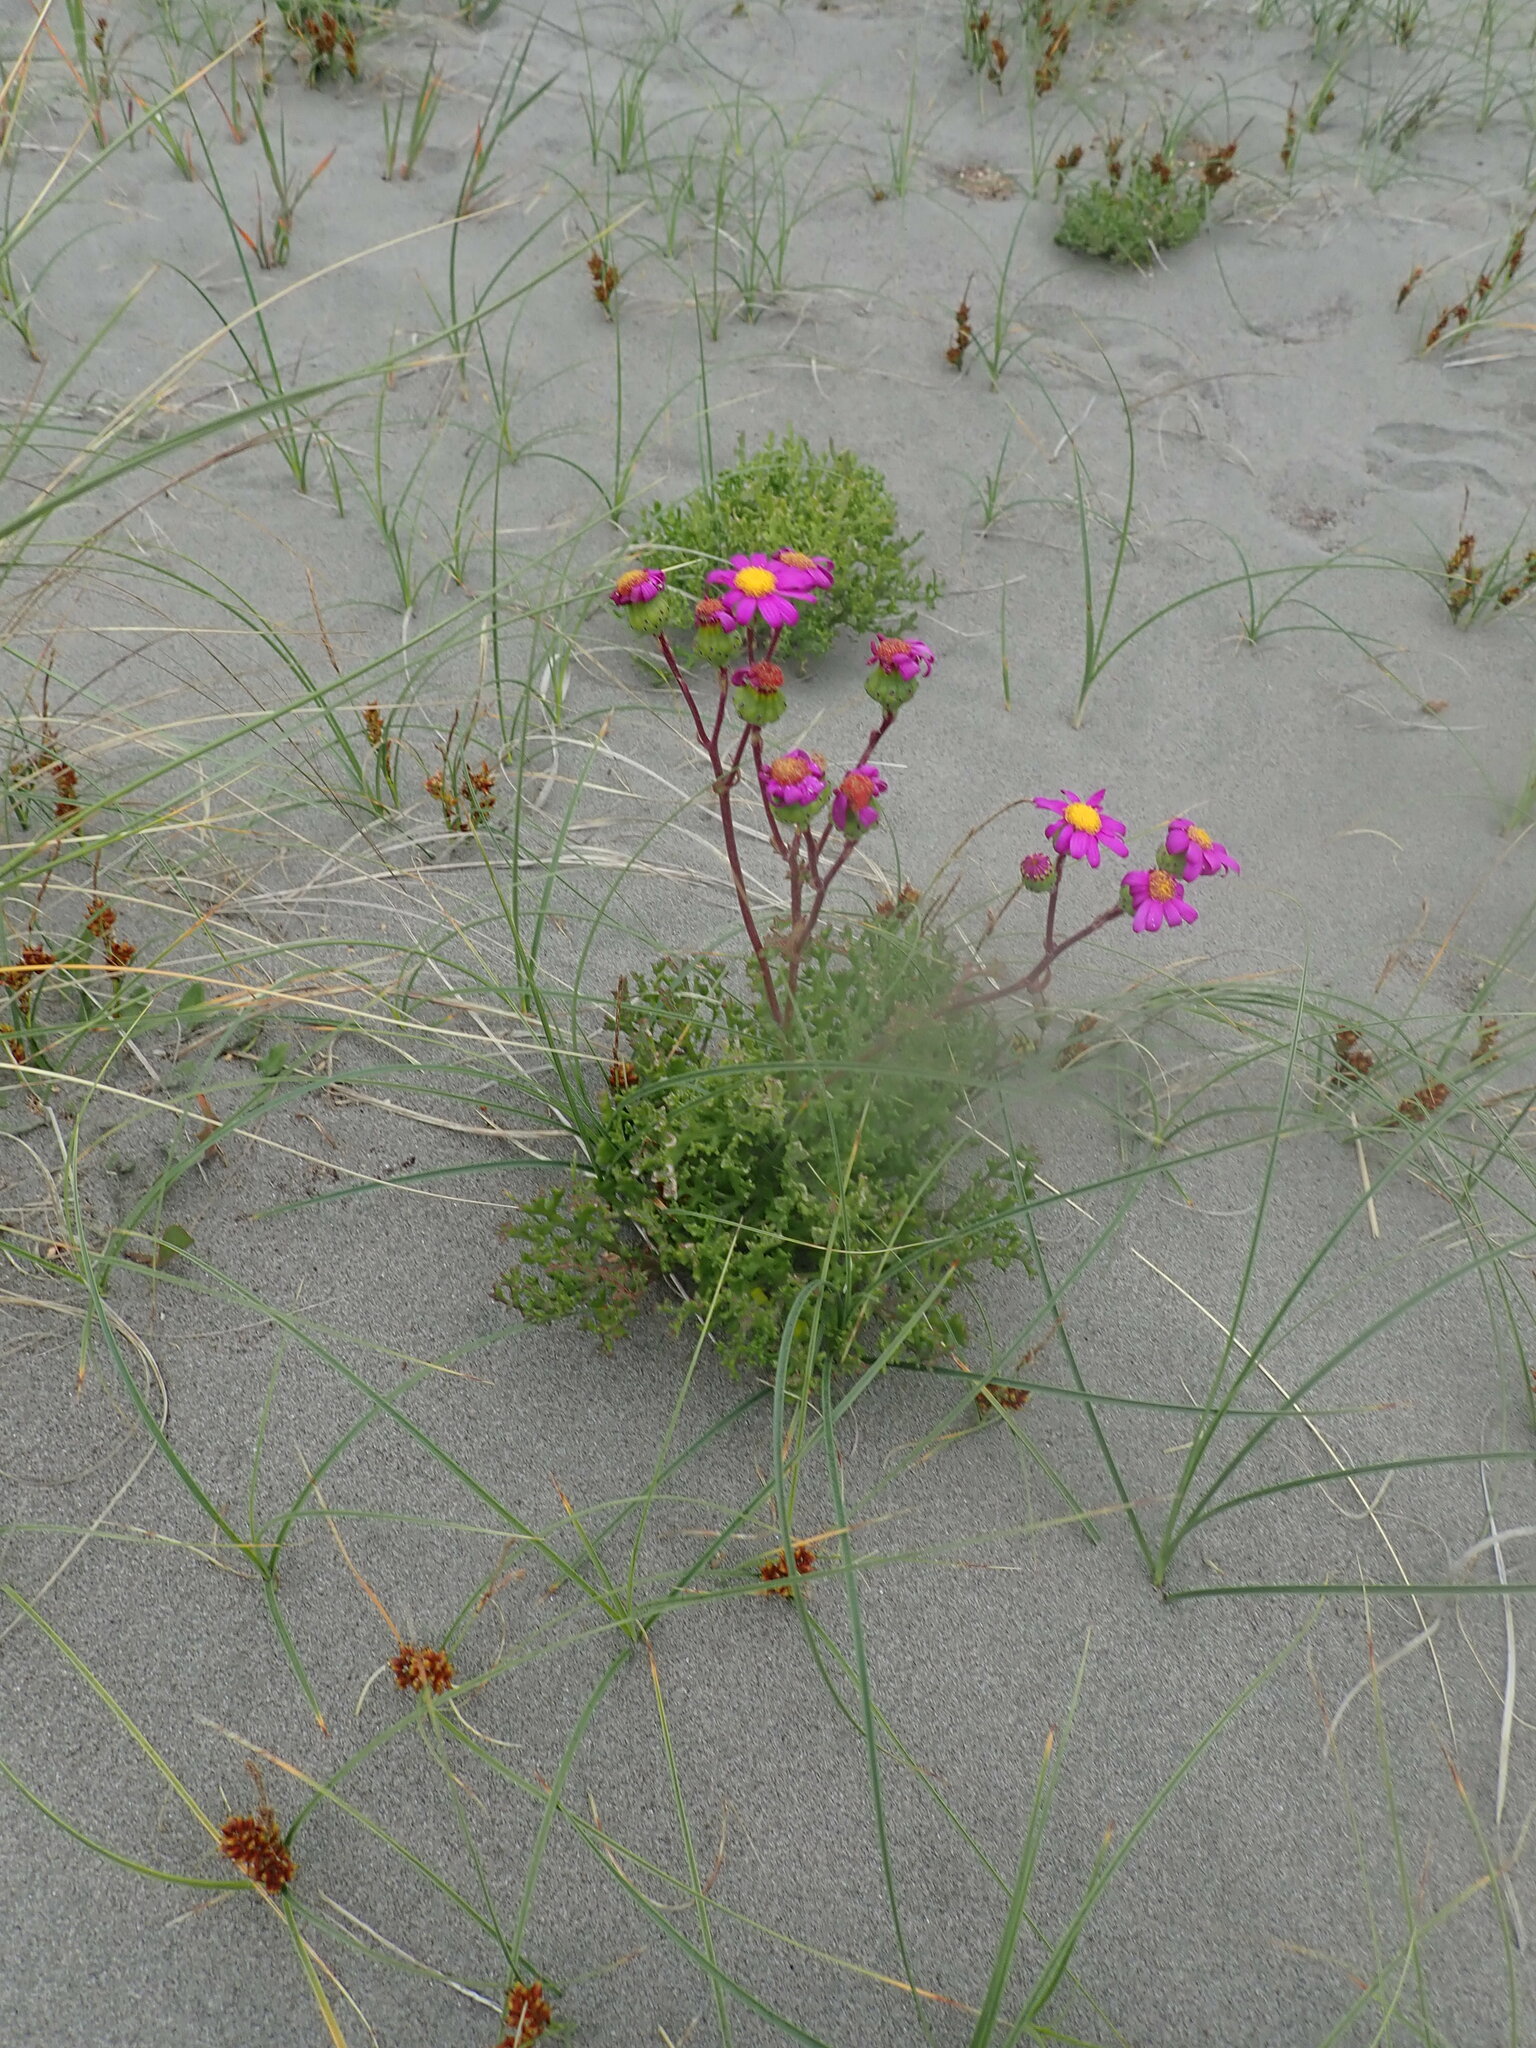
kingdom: Plantae
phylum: Tracheophyta
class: Magnoliopsida
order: Asterales
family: Asteraceae
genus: Senecio
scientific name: Senecio elegans
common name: Purple groundsel
